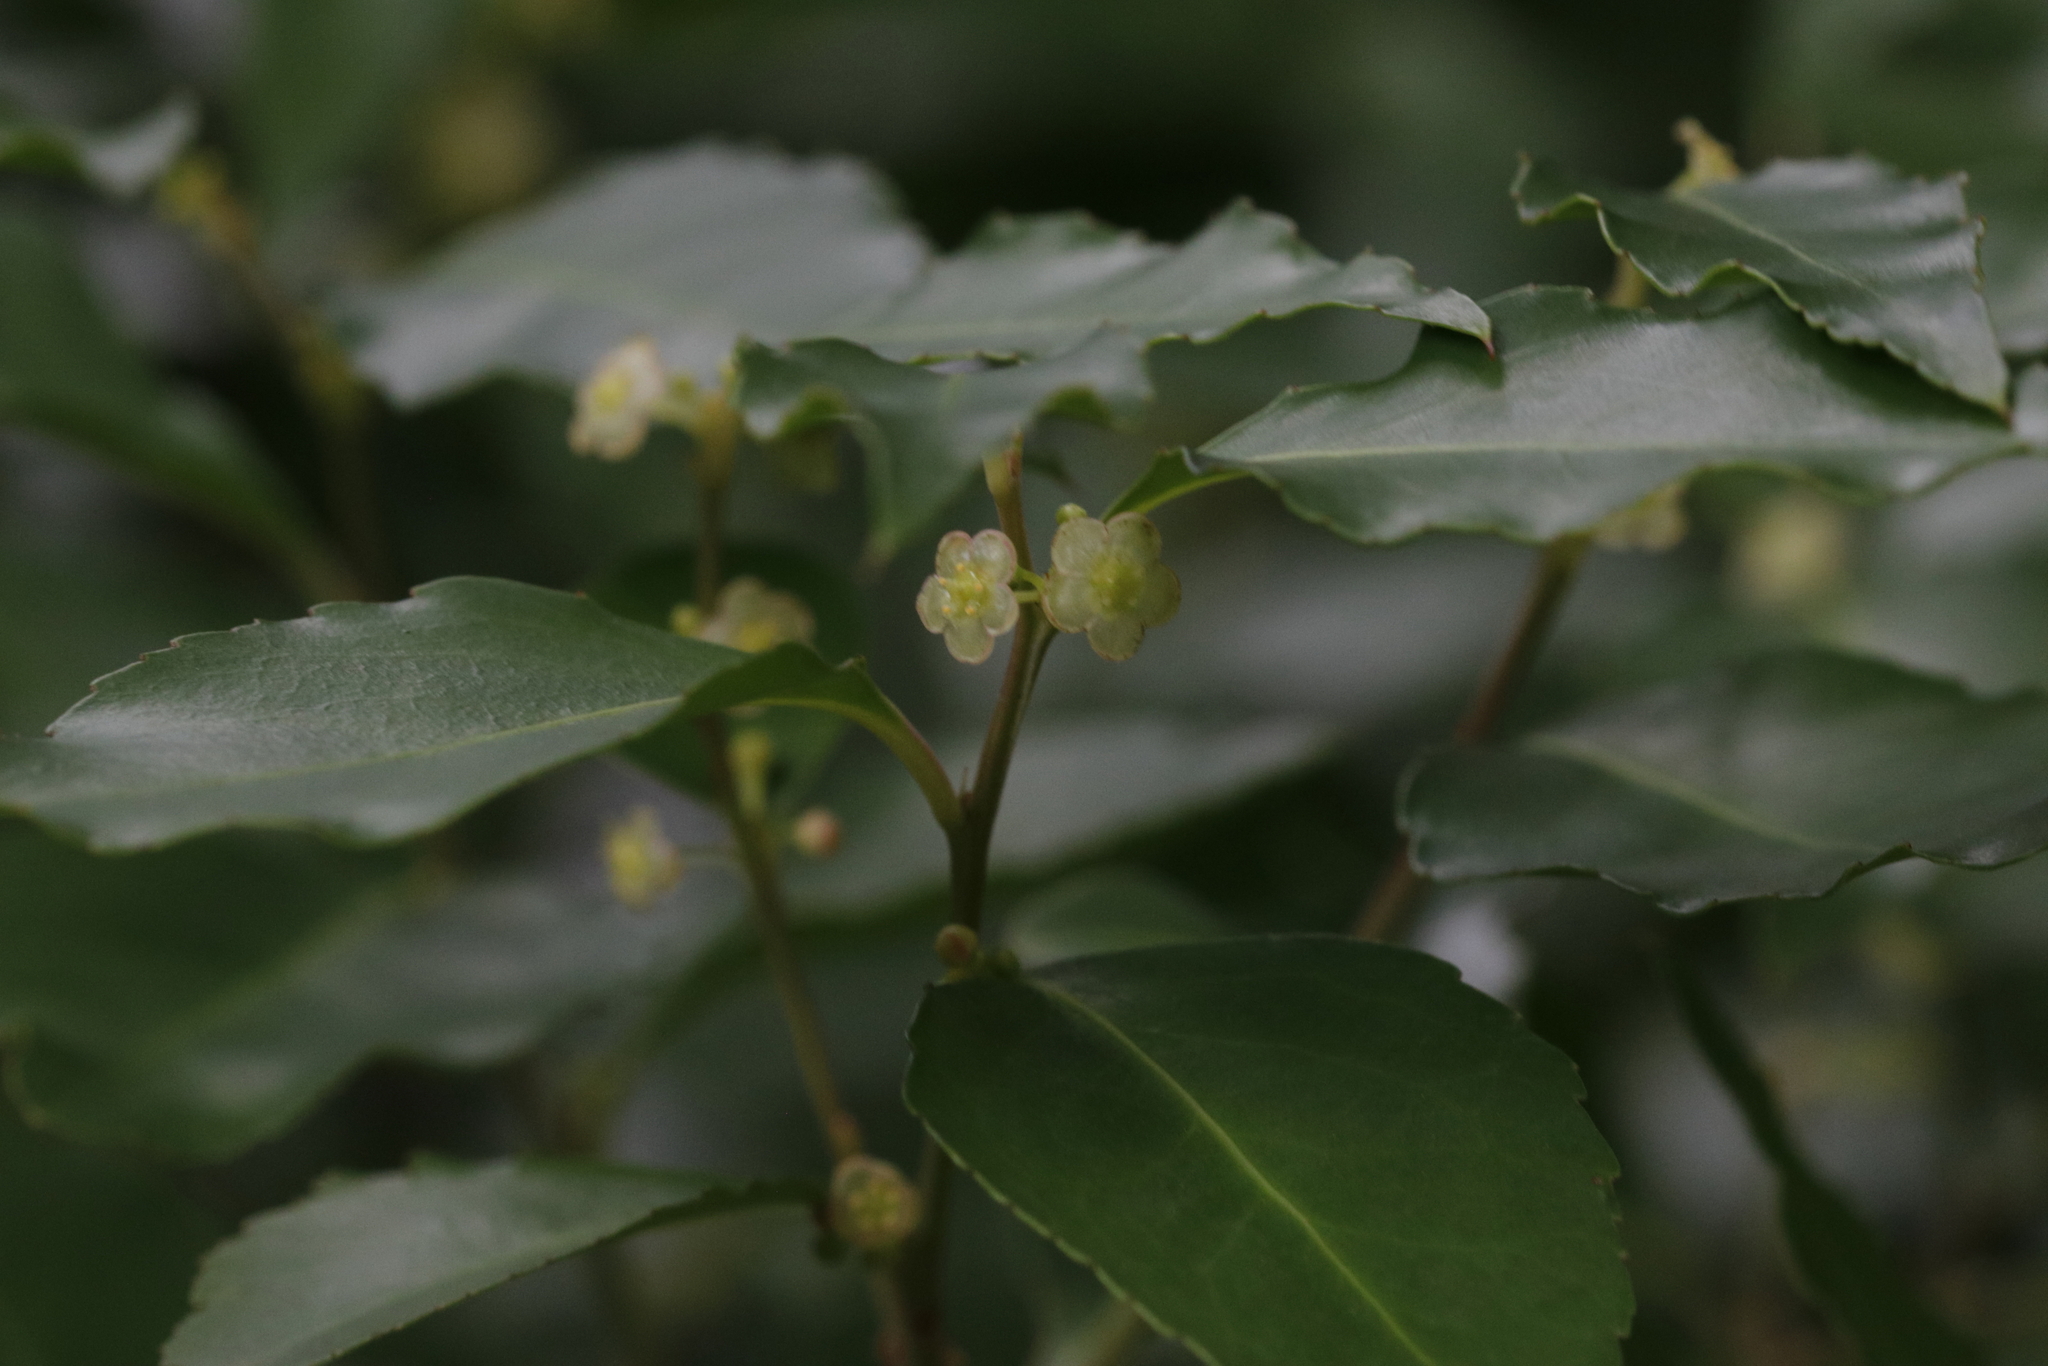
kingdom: Plantae
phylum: Tracheophyta
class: Magnoliopsida
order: Celastrales
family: Celastraceae
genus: Gymnosporia
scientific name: Gymnosporia acuminata
